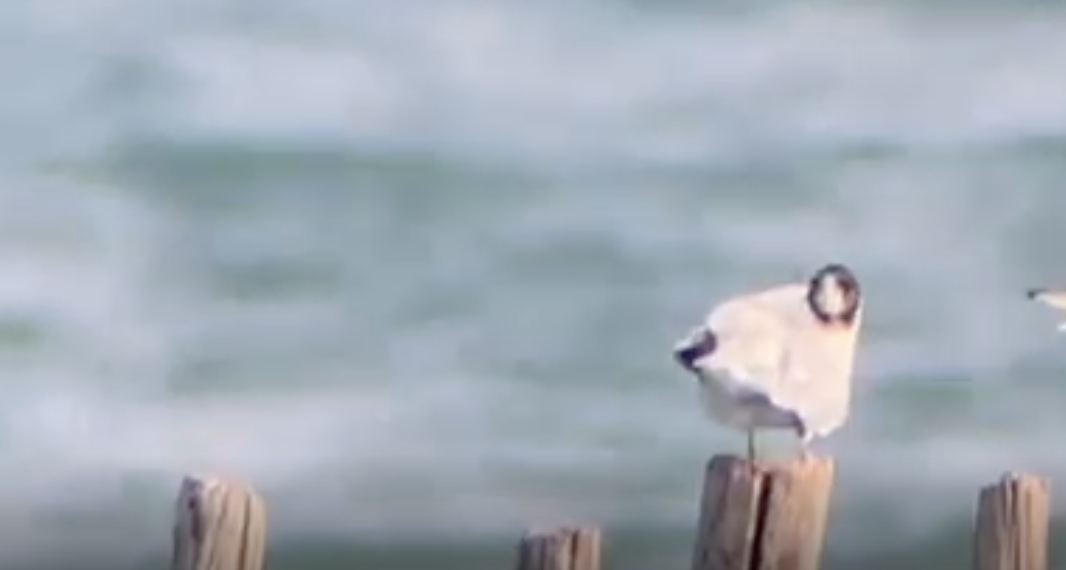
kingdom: Animalia
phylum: Chordata
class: Aves
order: Charadriiformes
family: Laridae
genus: Hydrocoloeus
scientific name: Hydrocoloeus minutus
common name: Little gull
